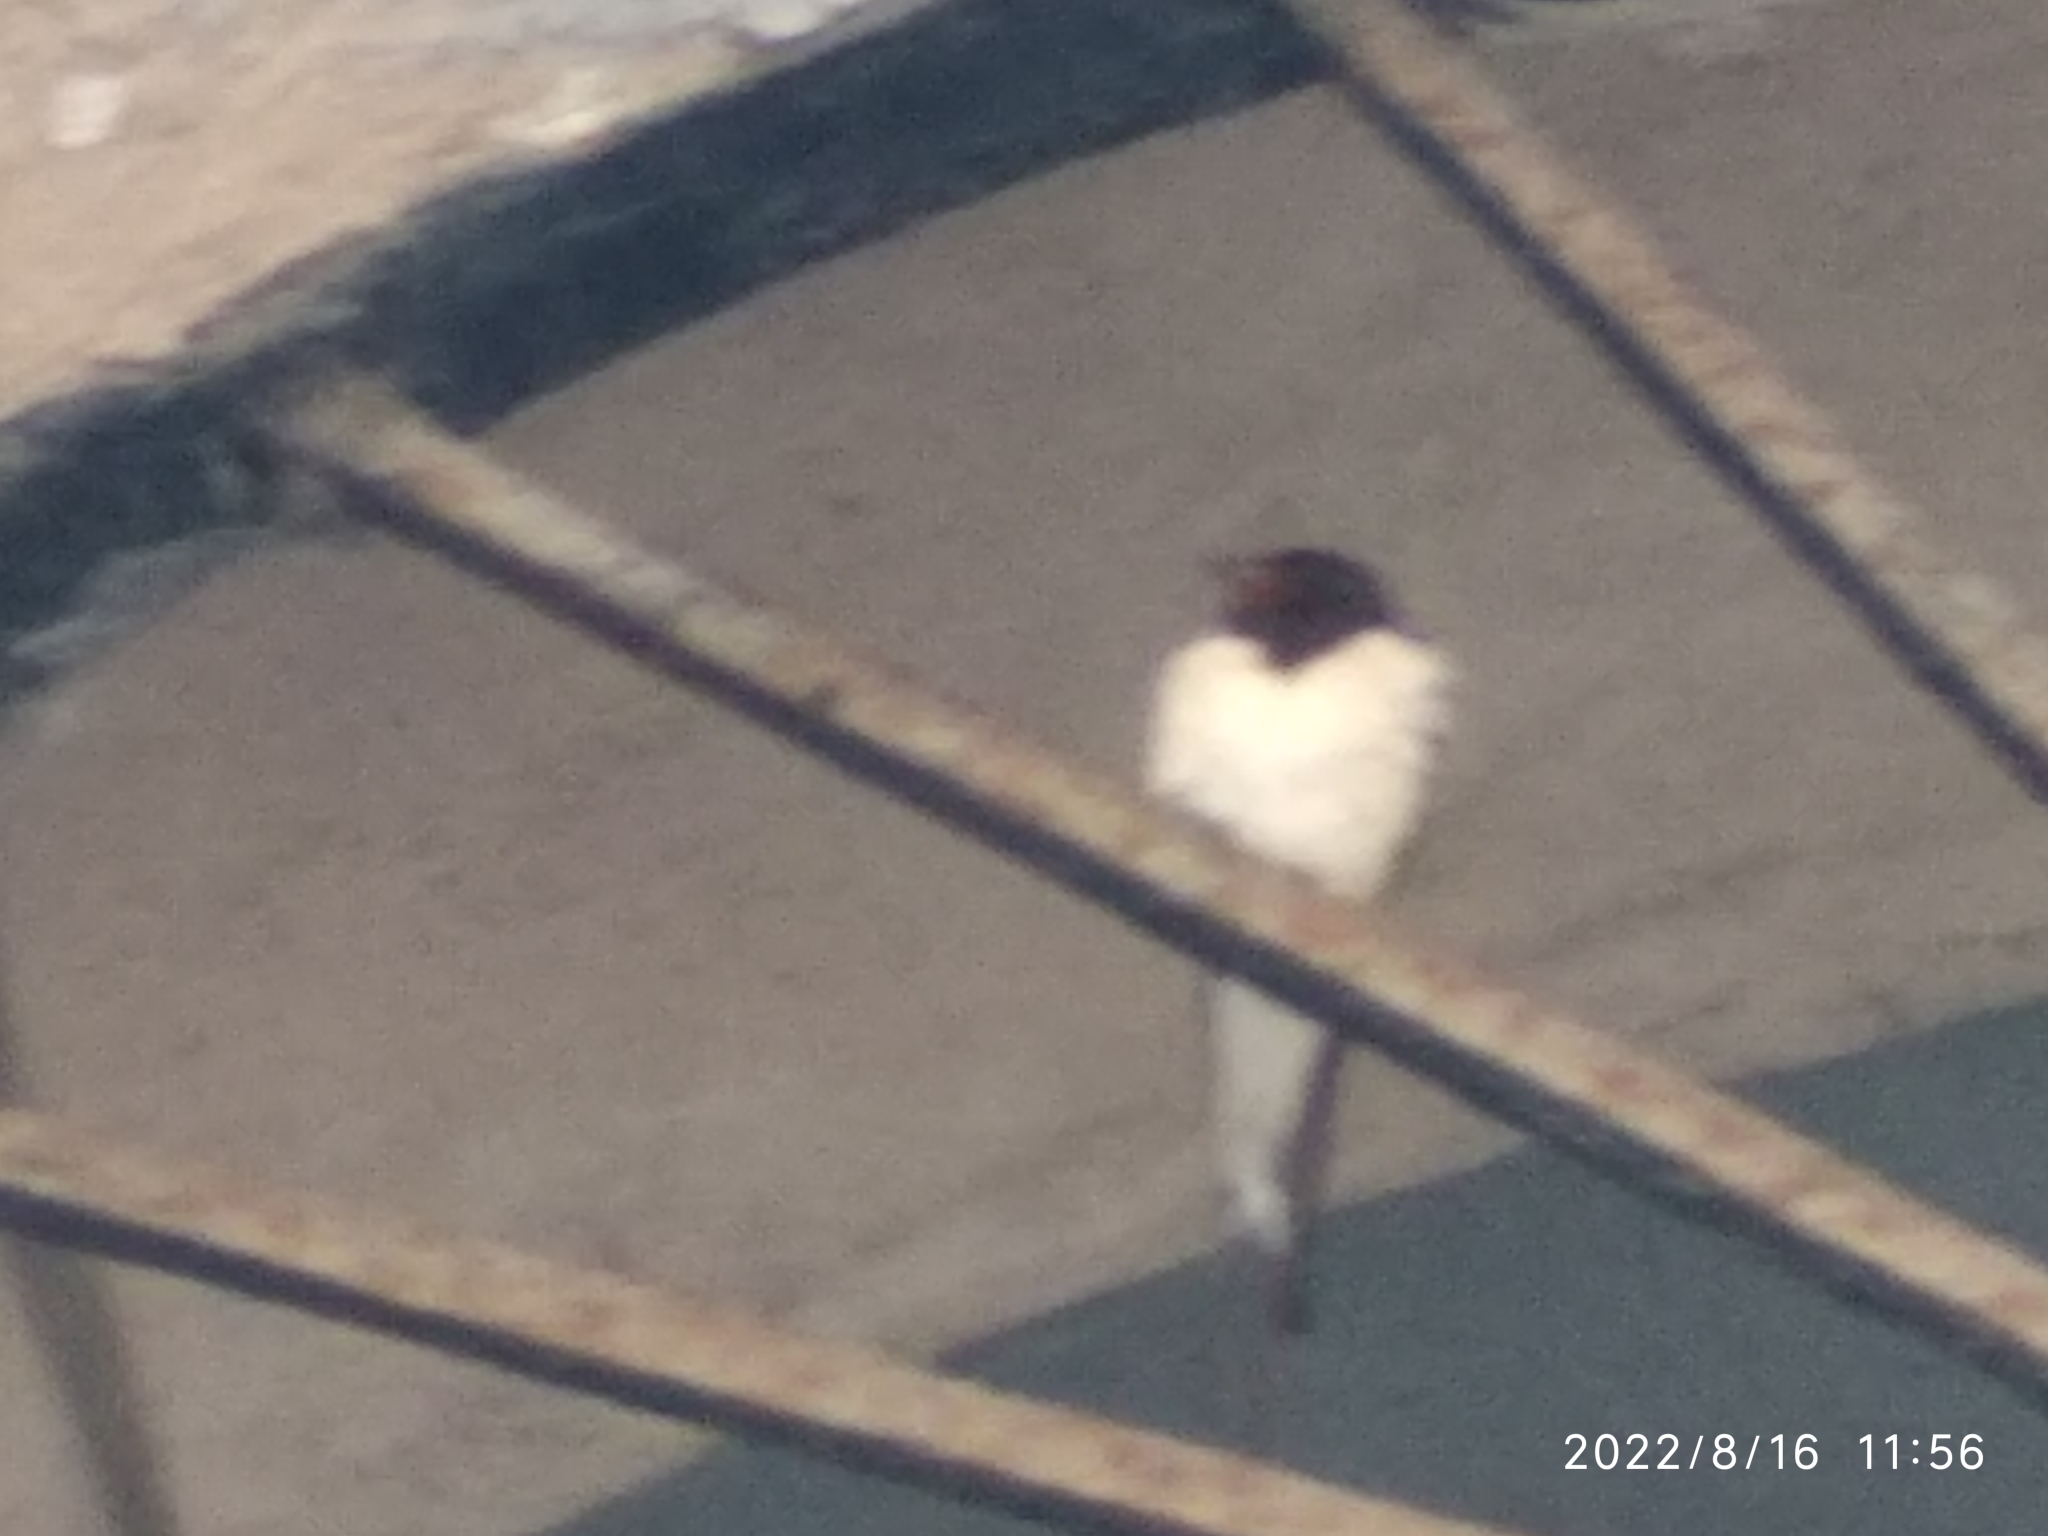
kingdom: Animalia
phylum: Chordata
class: Aves
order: Passeriformes
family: Hirundinidae
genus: Hirundo
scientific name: Hirundo rustica
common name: Barn swallow
